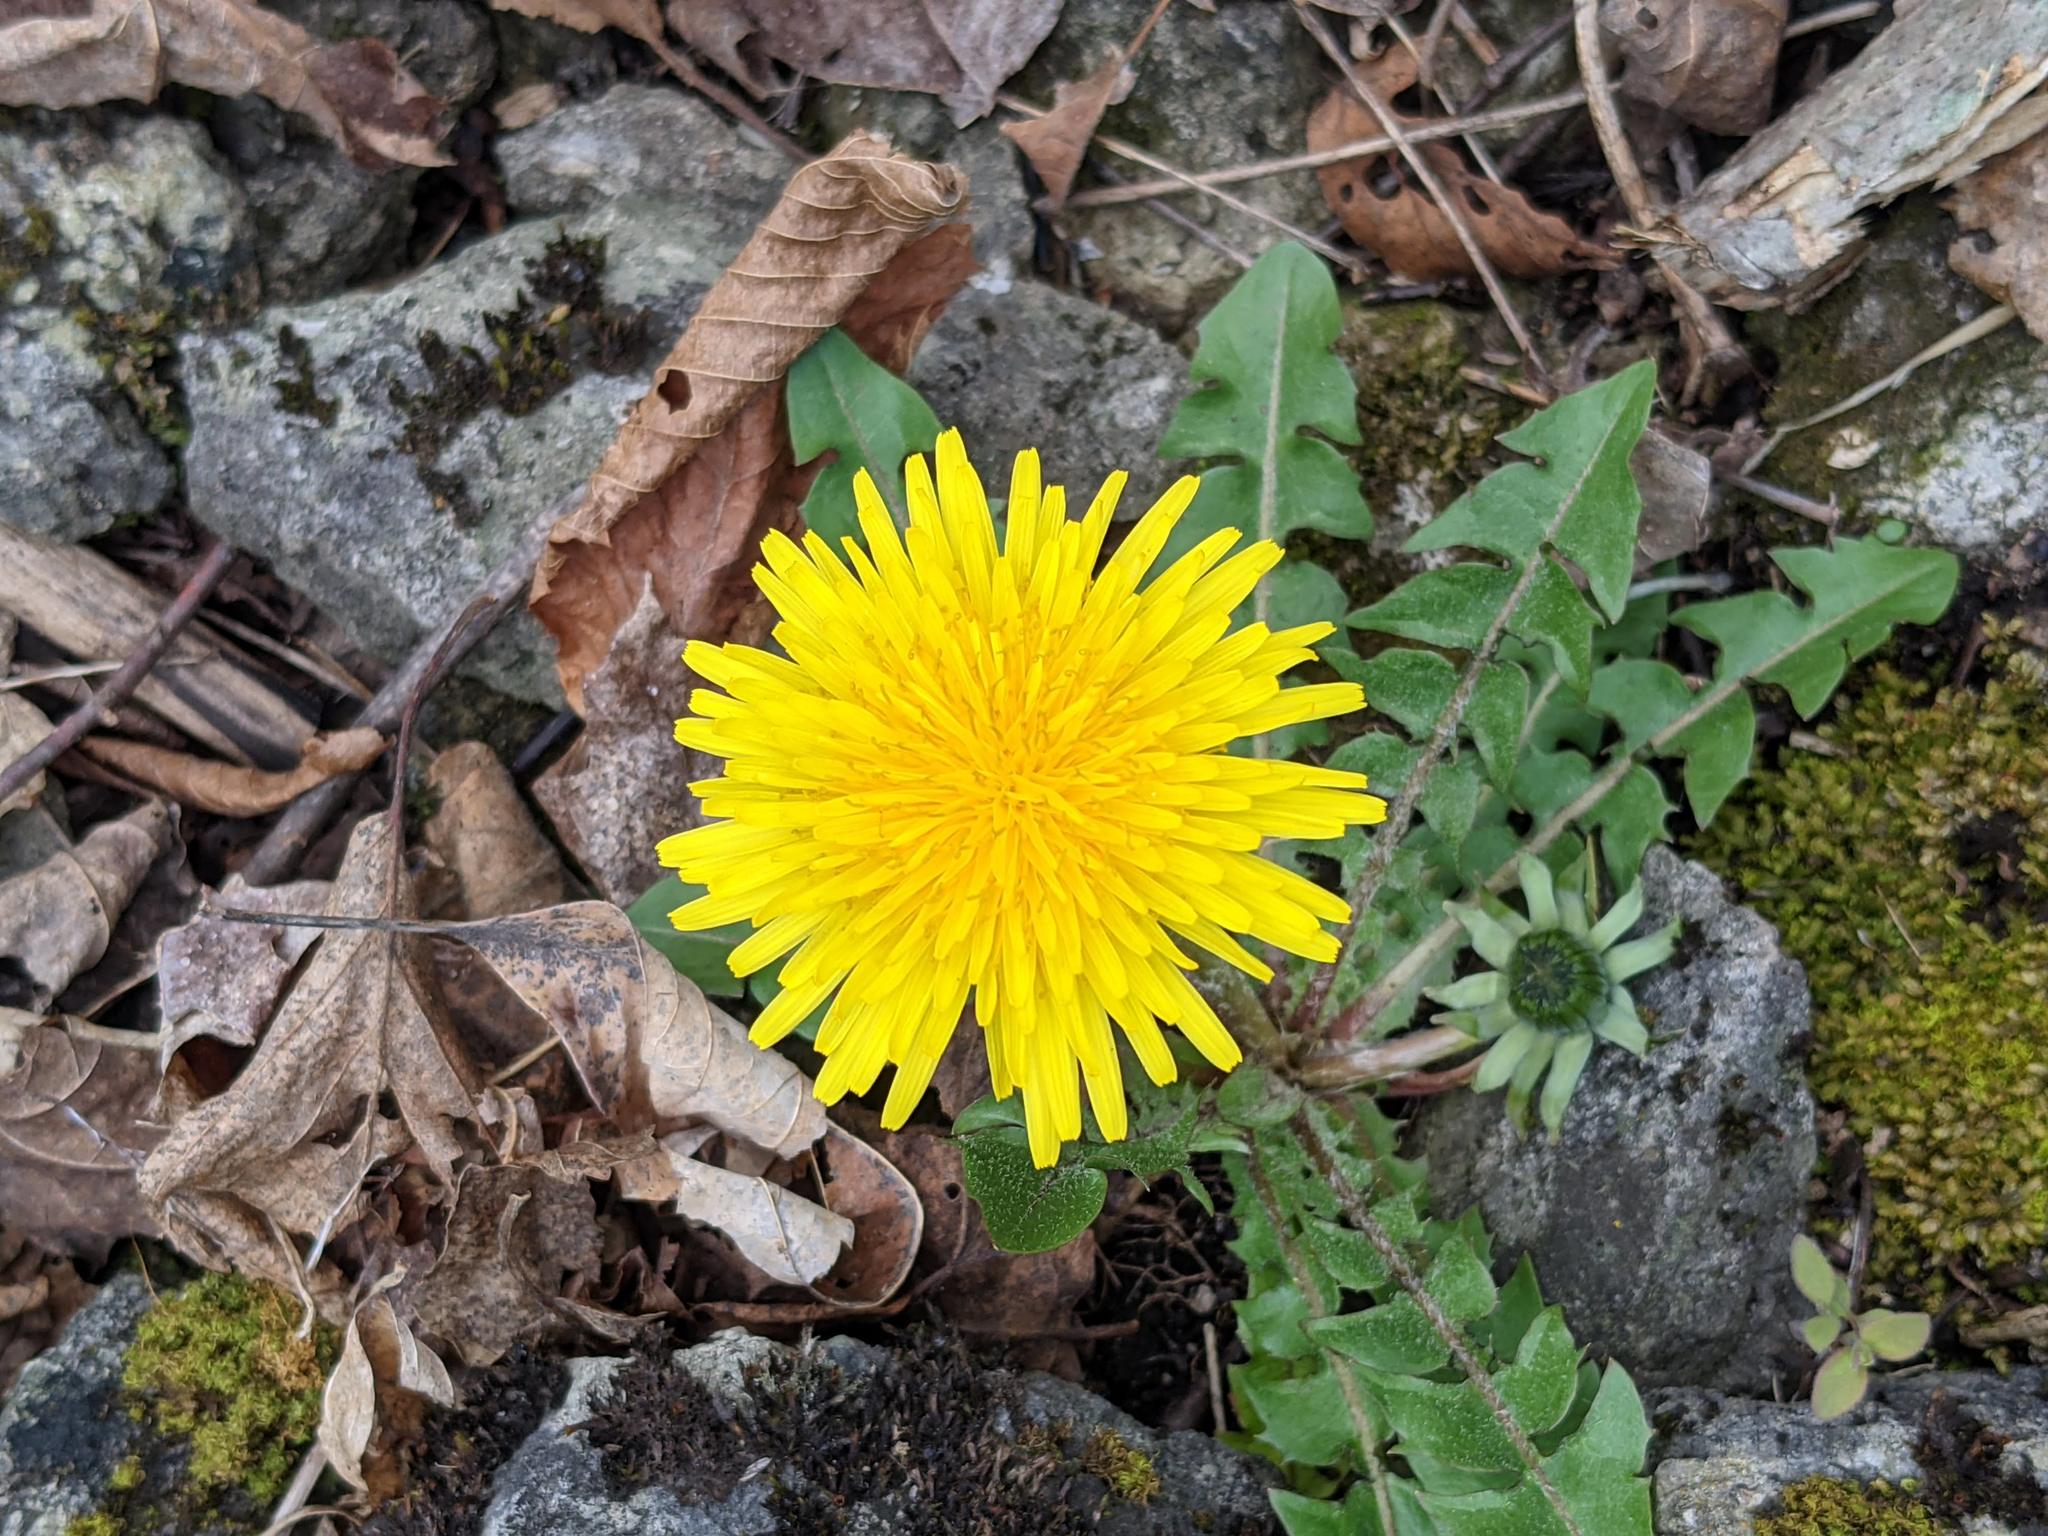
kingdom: Plantae
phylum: Tracheophyta
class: Magnoliopsida
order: Asterales
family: Asteraceae
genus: Taraxacum
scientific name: Taraxacum officinale
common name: Common dandelion
